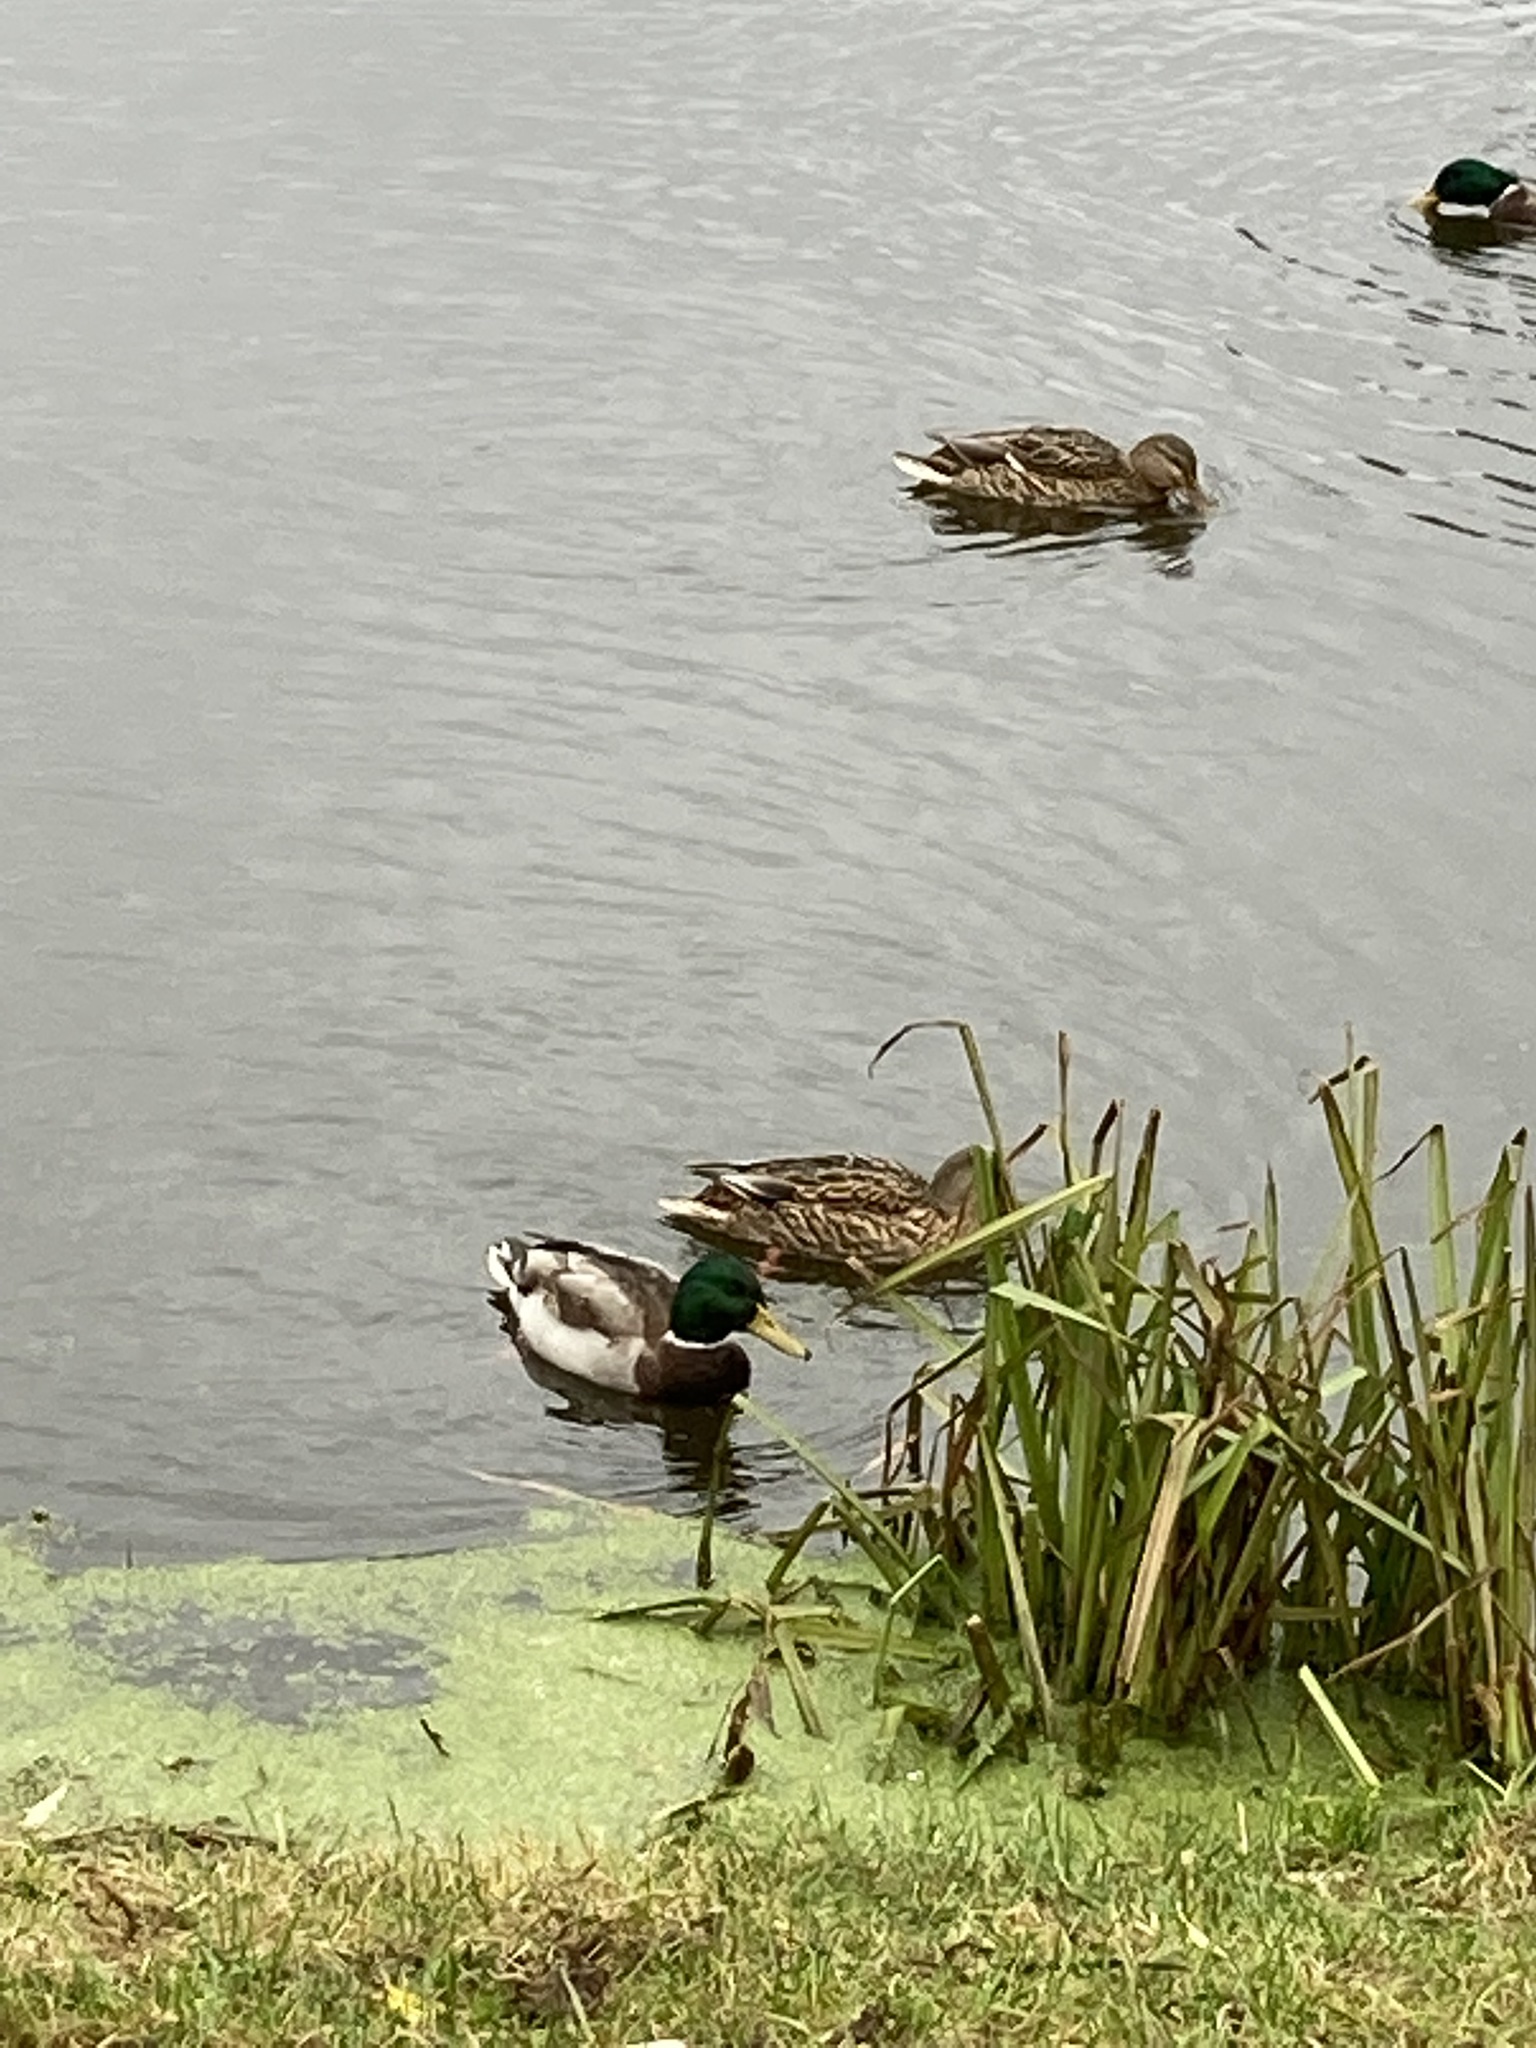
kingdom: Animalia
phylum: Chordata
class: Aves
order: Anseriformes
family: Anatidae
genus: Anas
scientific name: Anas platyrhynchos
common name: Mallard
